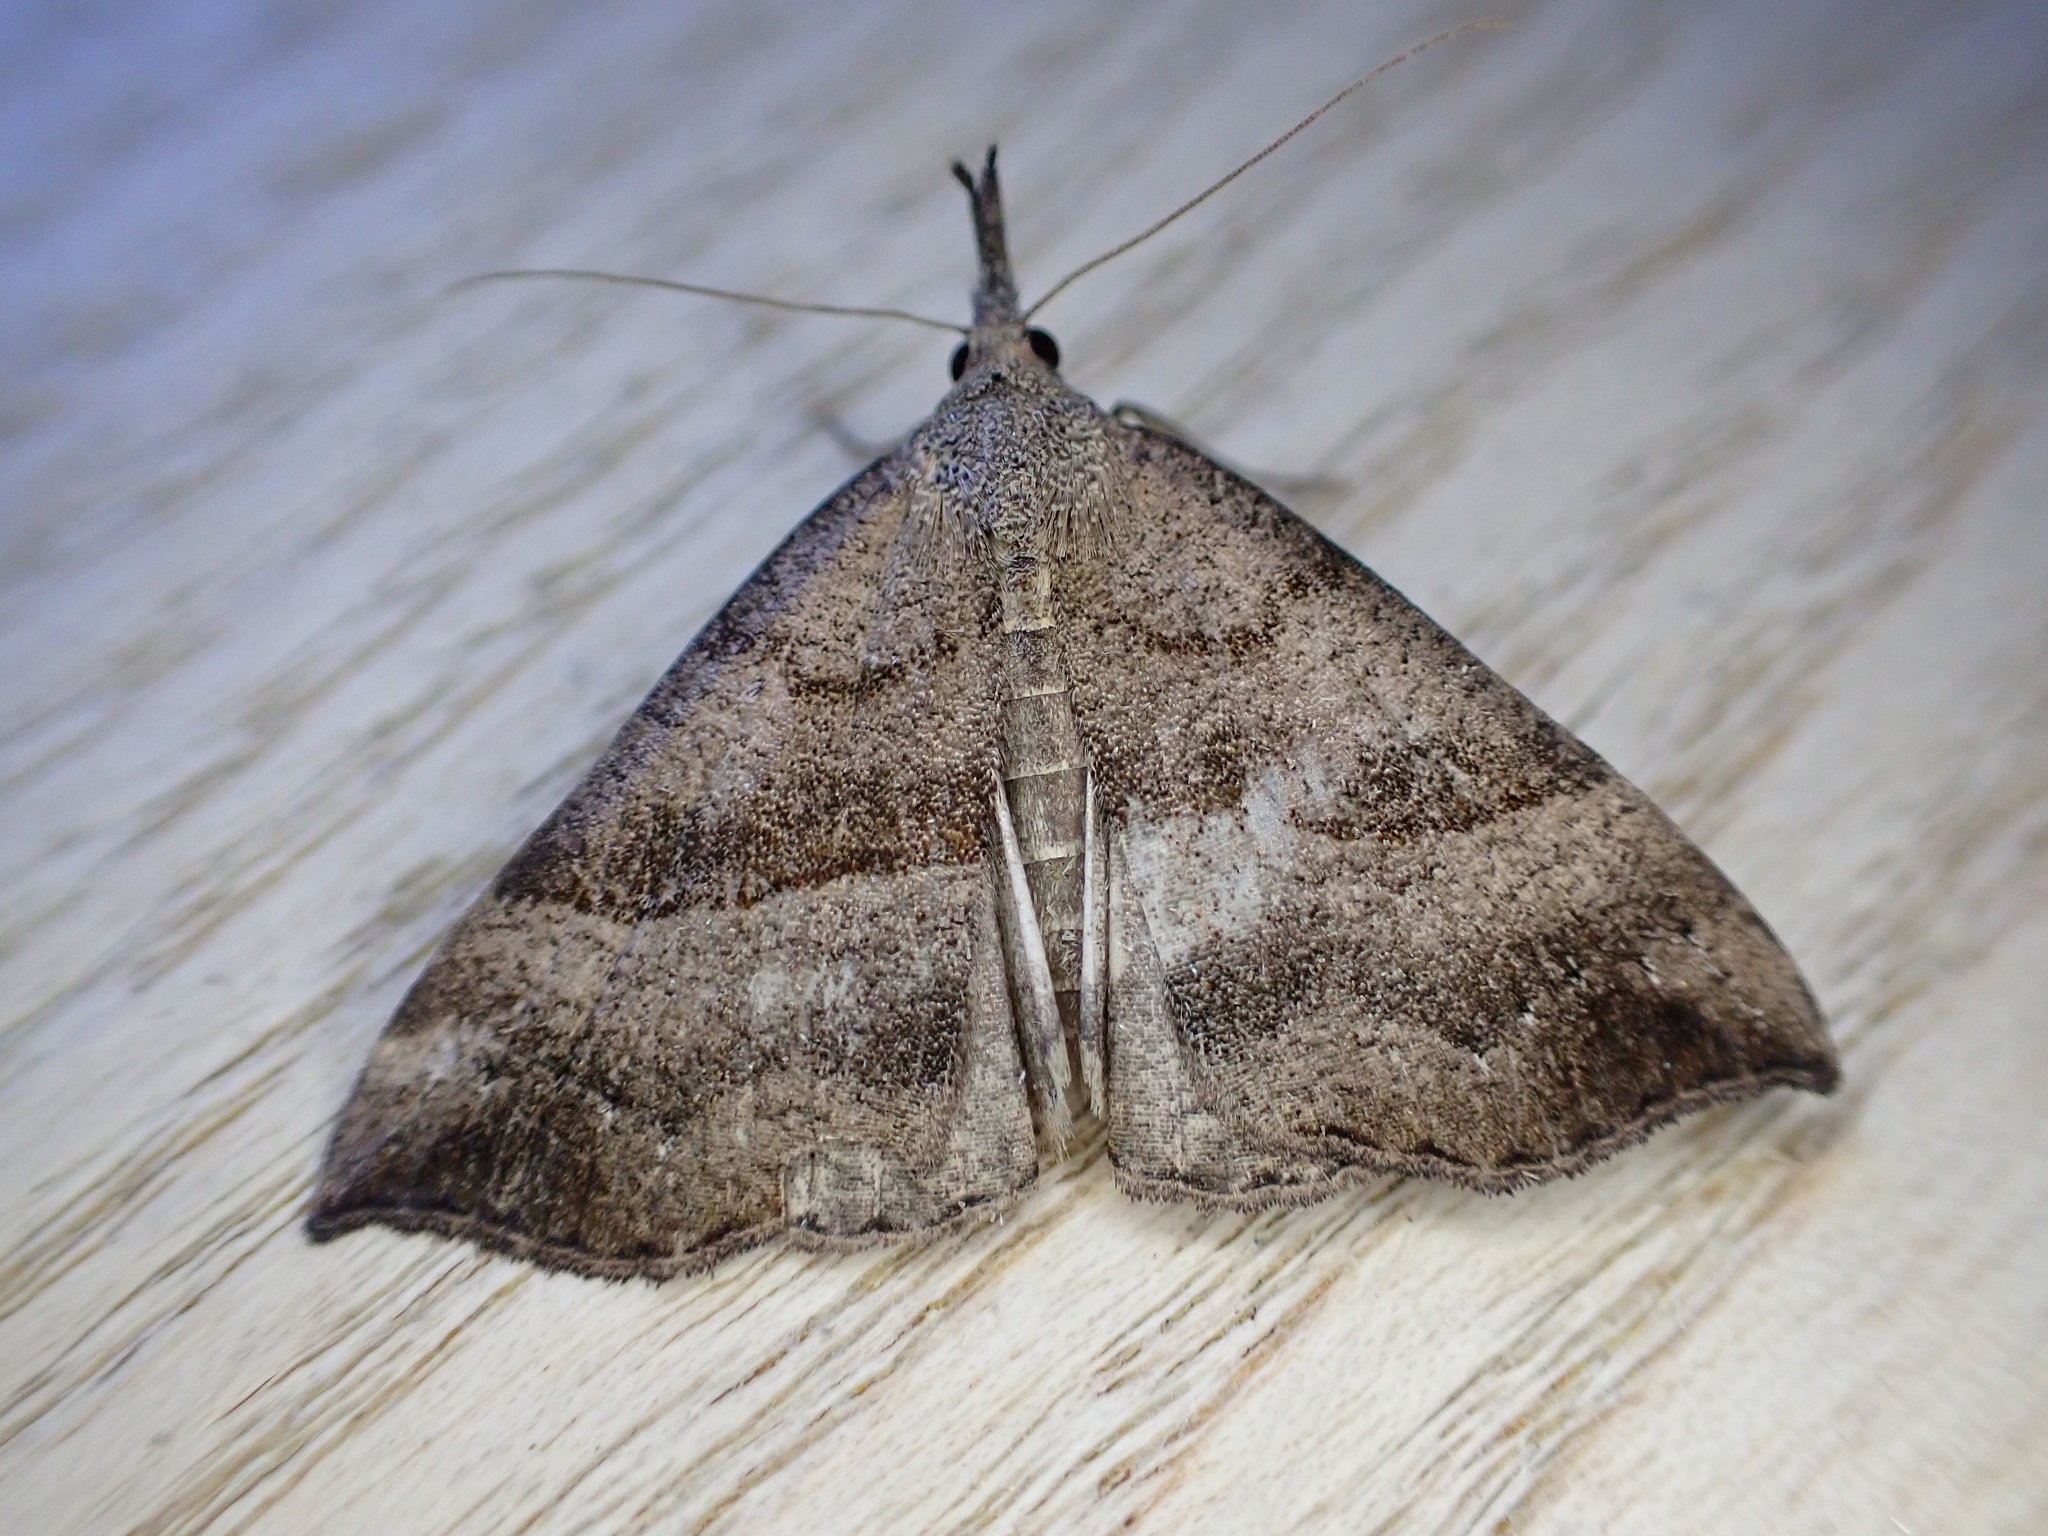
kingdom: Animalia
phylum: Arthropoda
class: Insecta
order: Lepidoptera
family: Erebidae
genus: Hypena
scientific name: Hypena proboscidalis
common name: Snout
